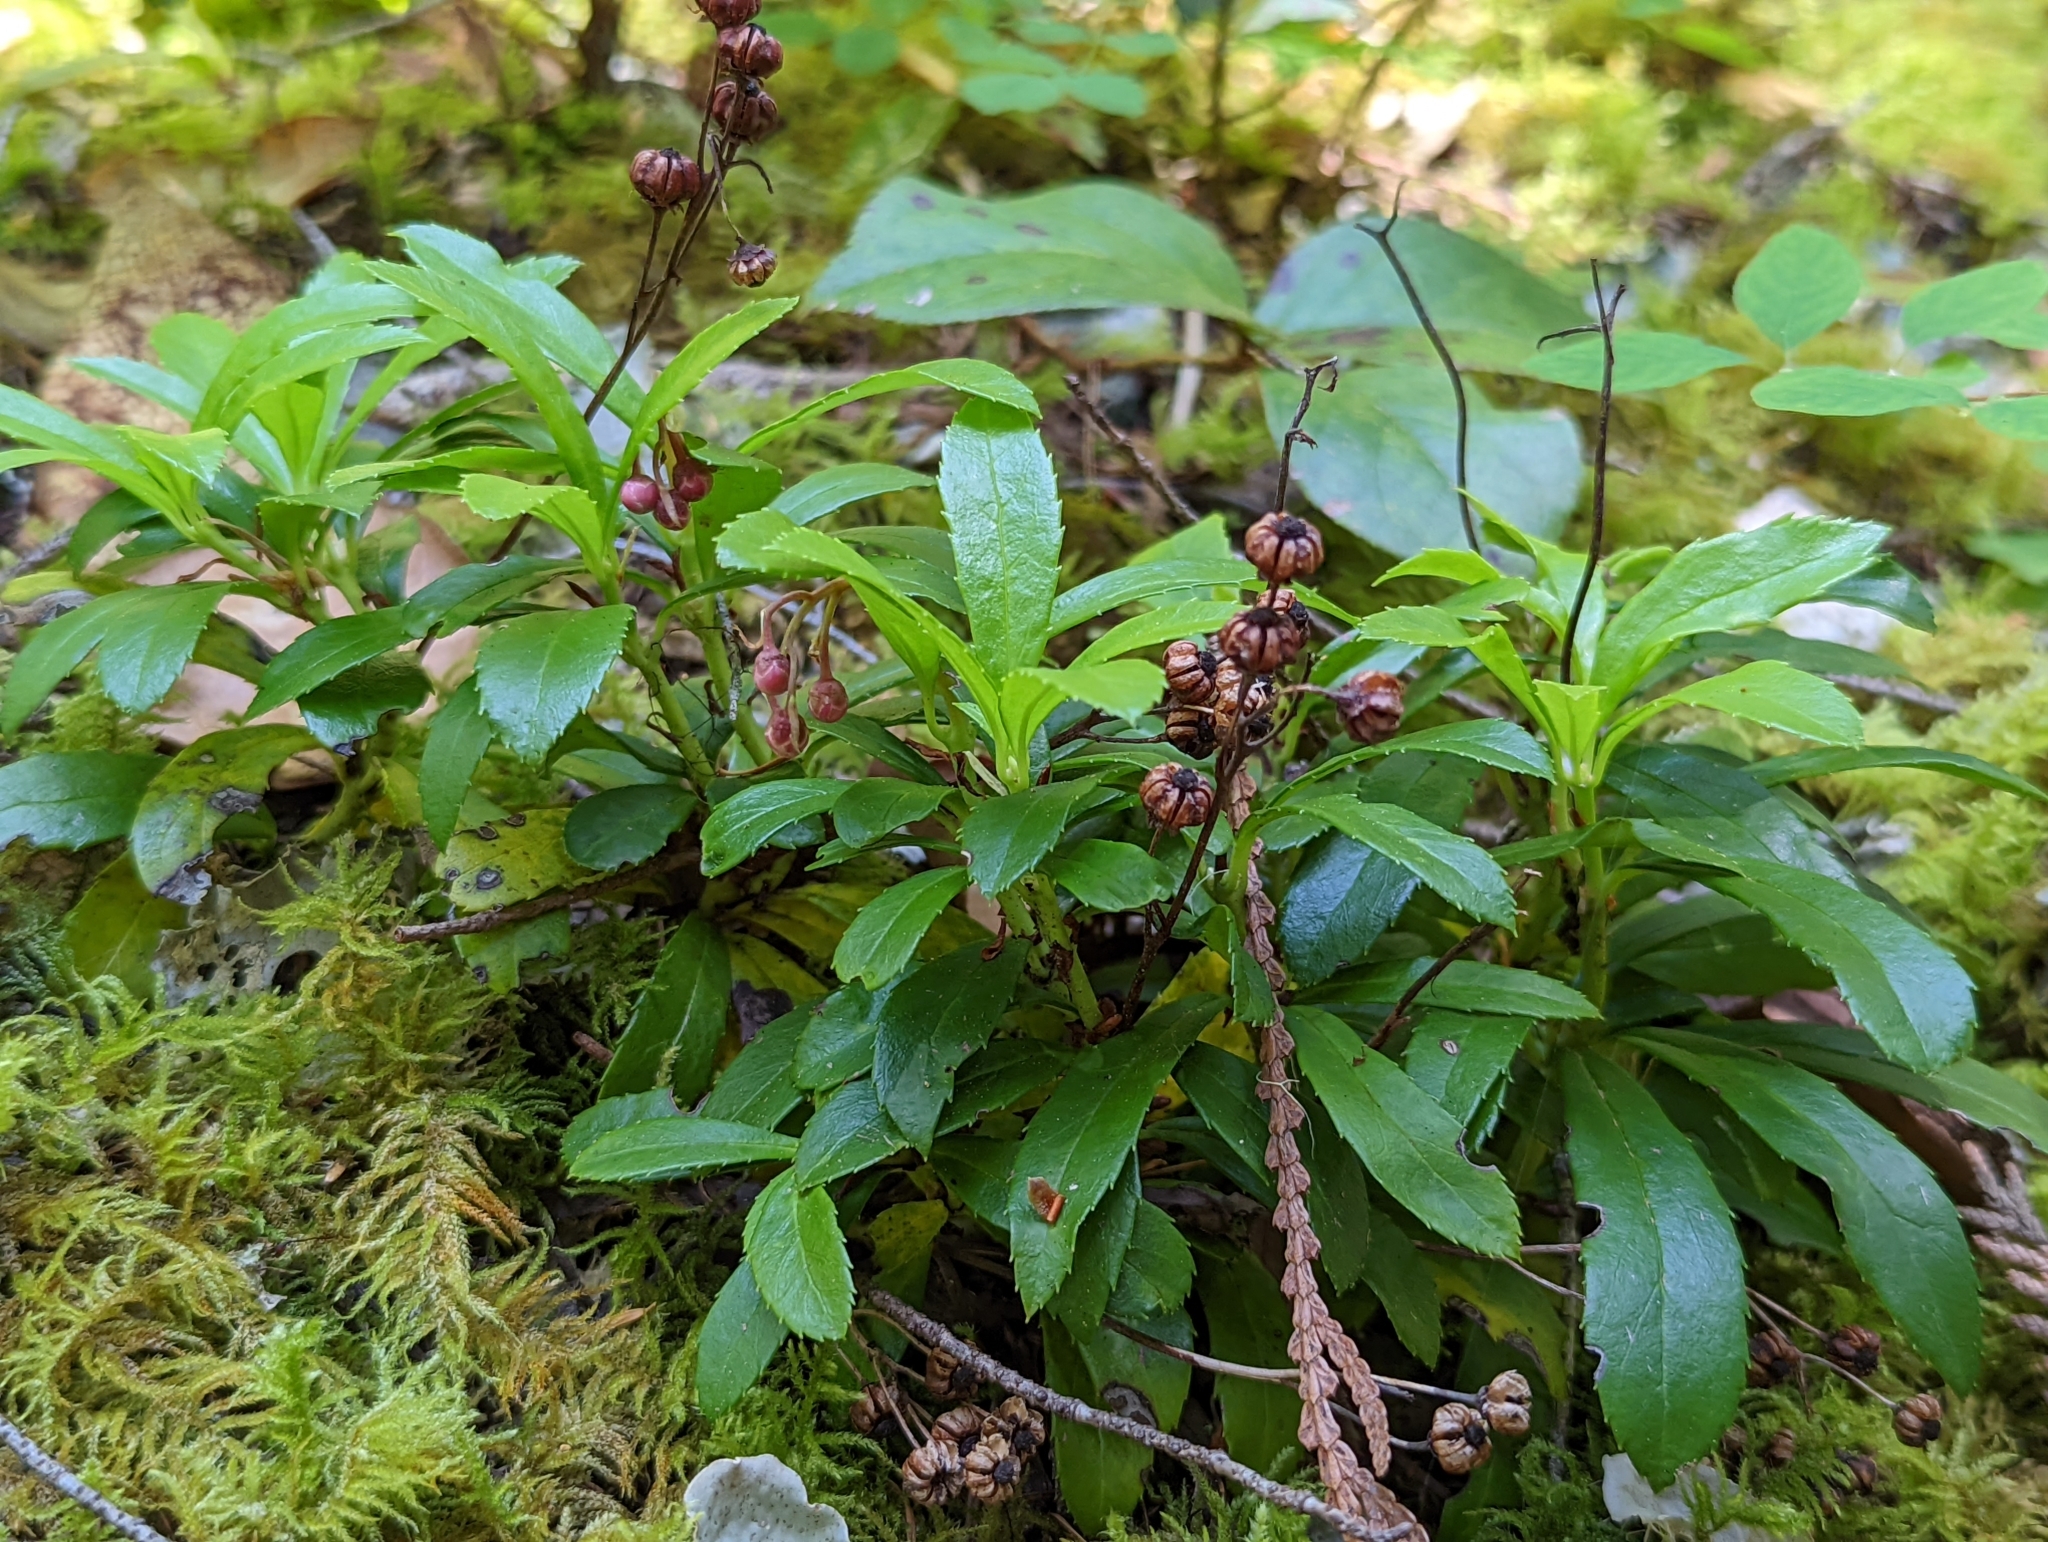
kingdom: Plantae
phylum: Tracheophyta
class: Magnoliopsida
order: Ericales
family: Ericaceae
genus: Chimaphila
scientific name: Chimaphila umbellata
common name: Pipsissewa
